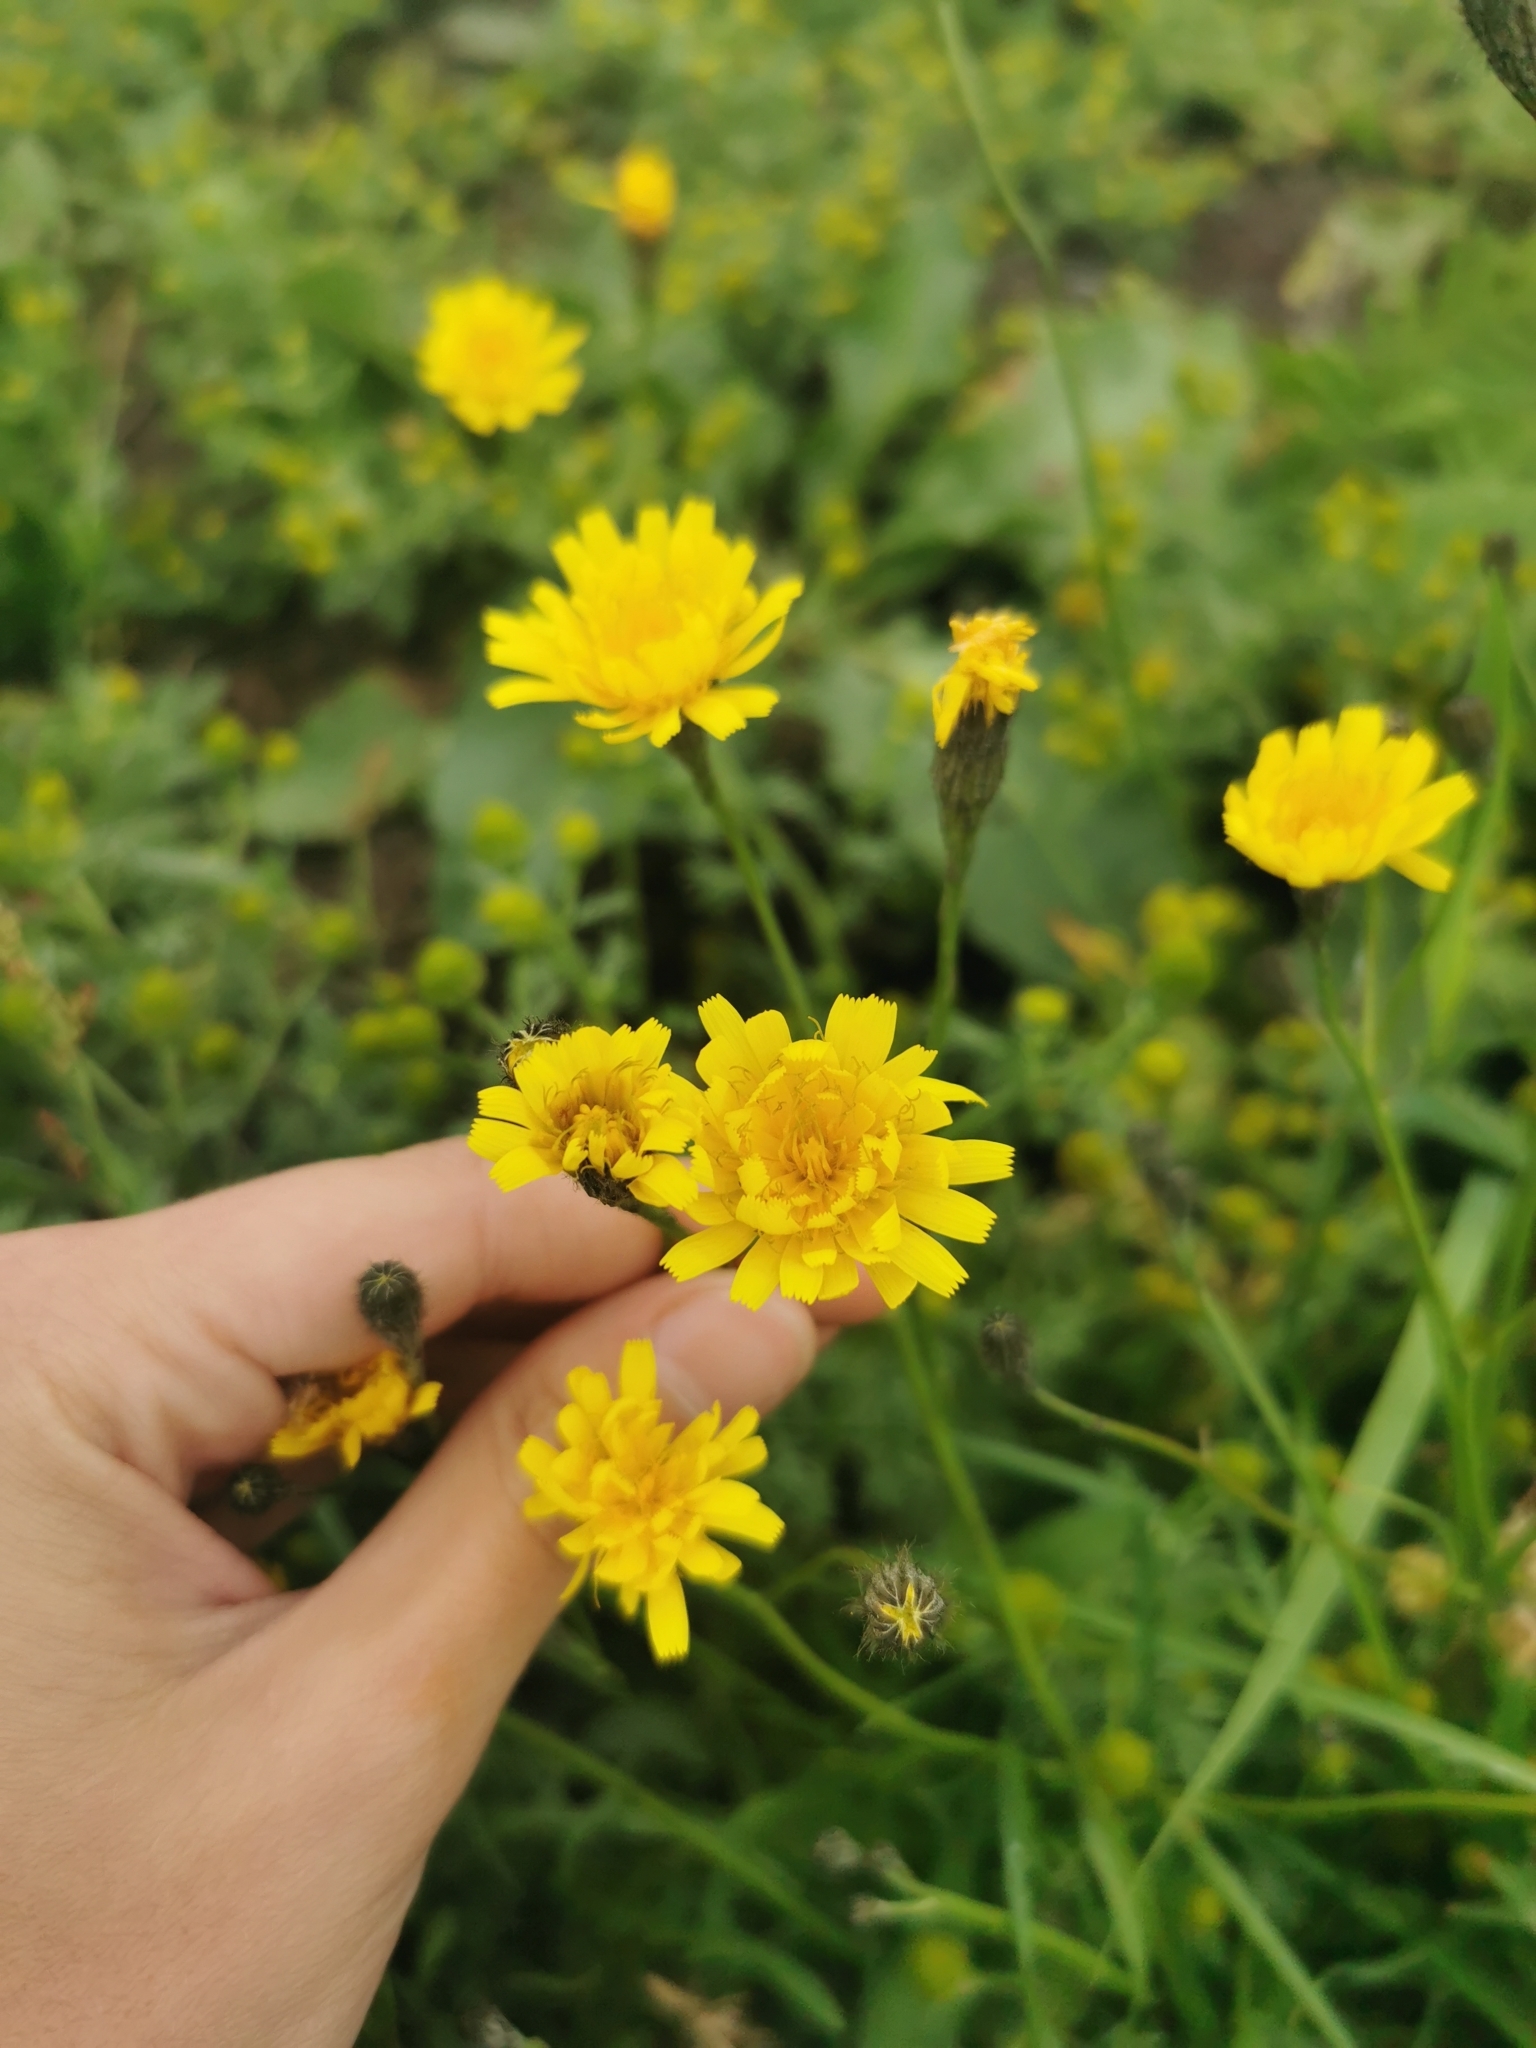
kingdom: Plantae
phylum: Tracheophyta
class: Magnoliopsida
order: Asterales
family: Asteraceae
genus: Scorzoneroides
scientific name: Scorzoneroides autumnalis
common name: Autumn hawkbit
